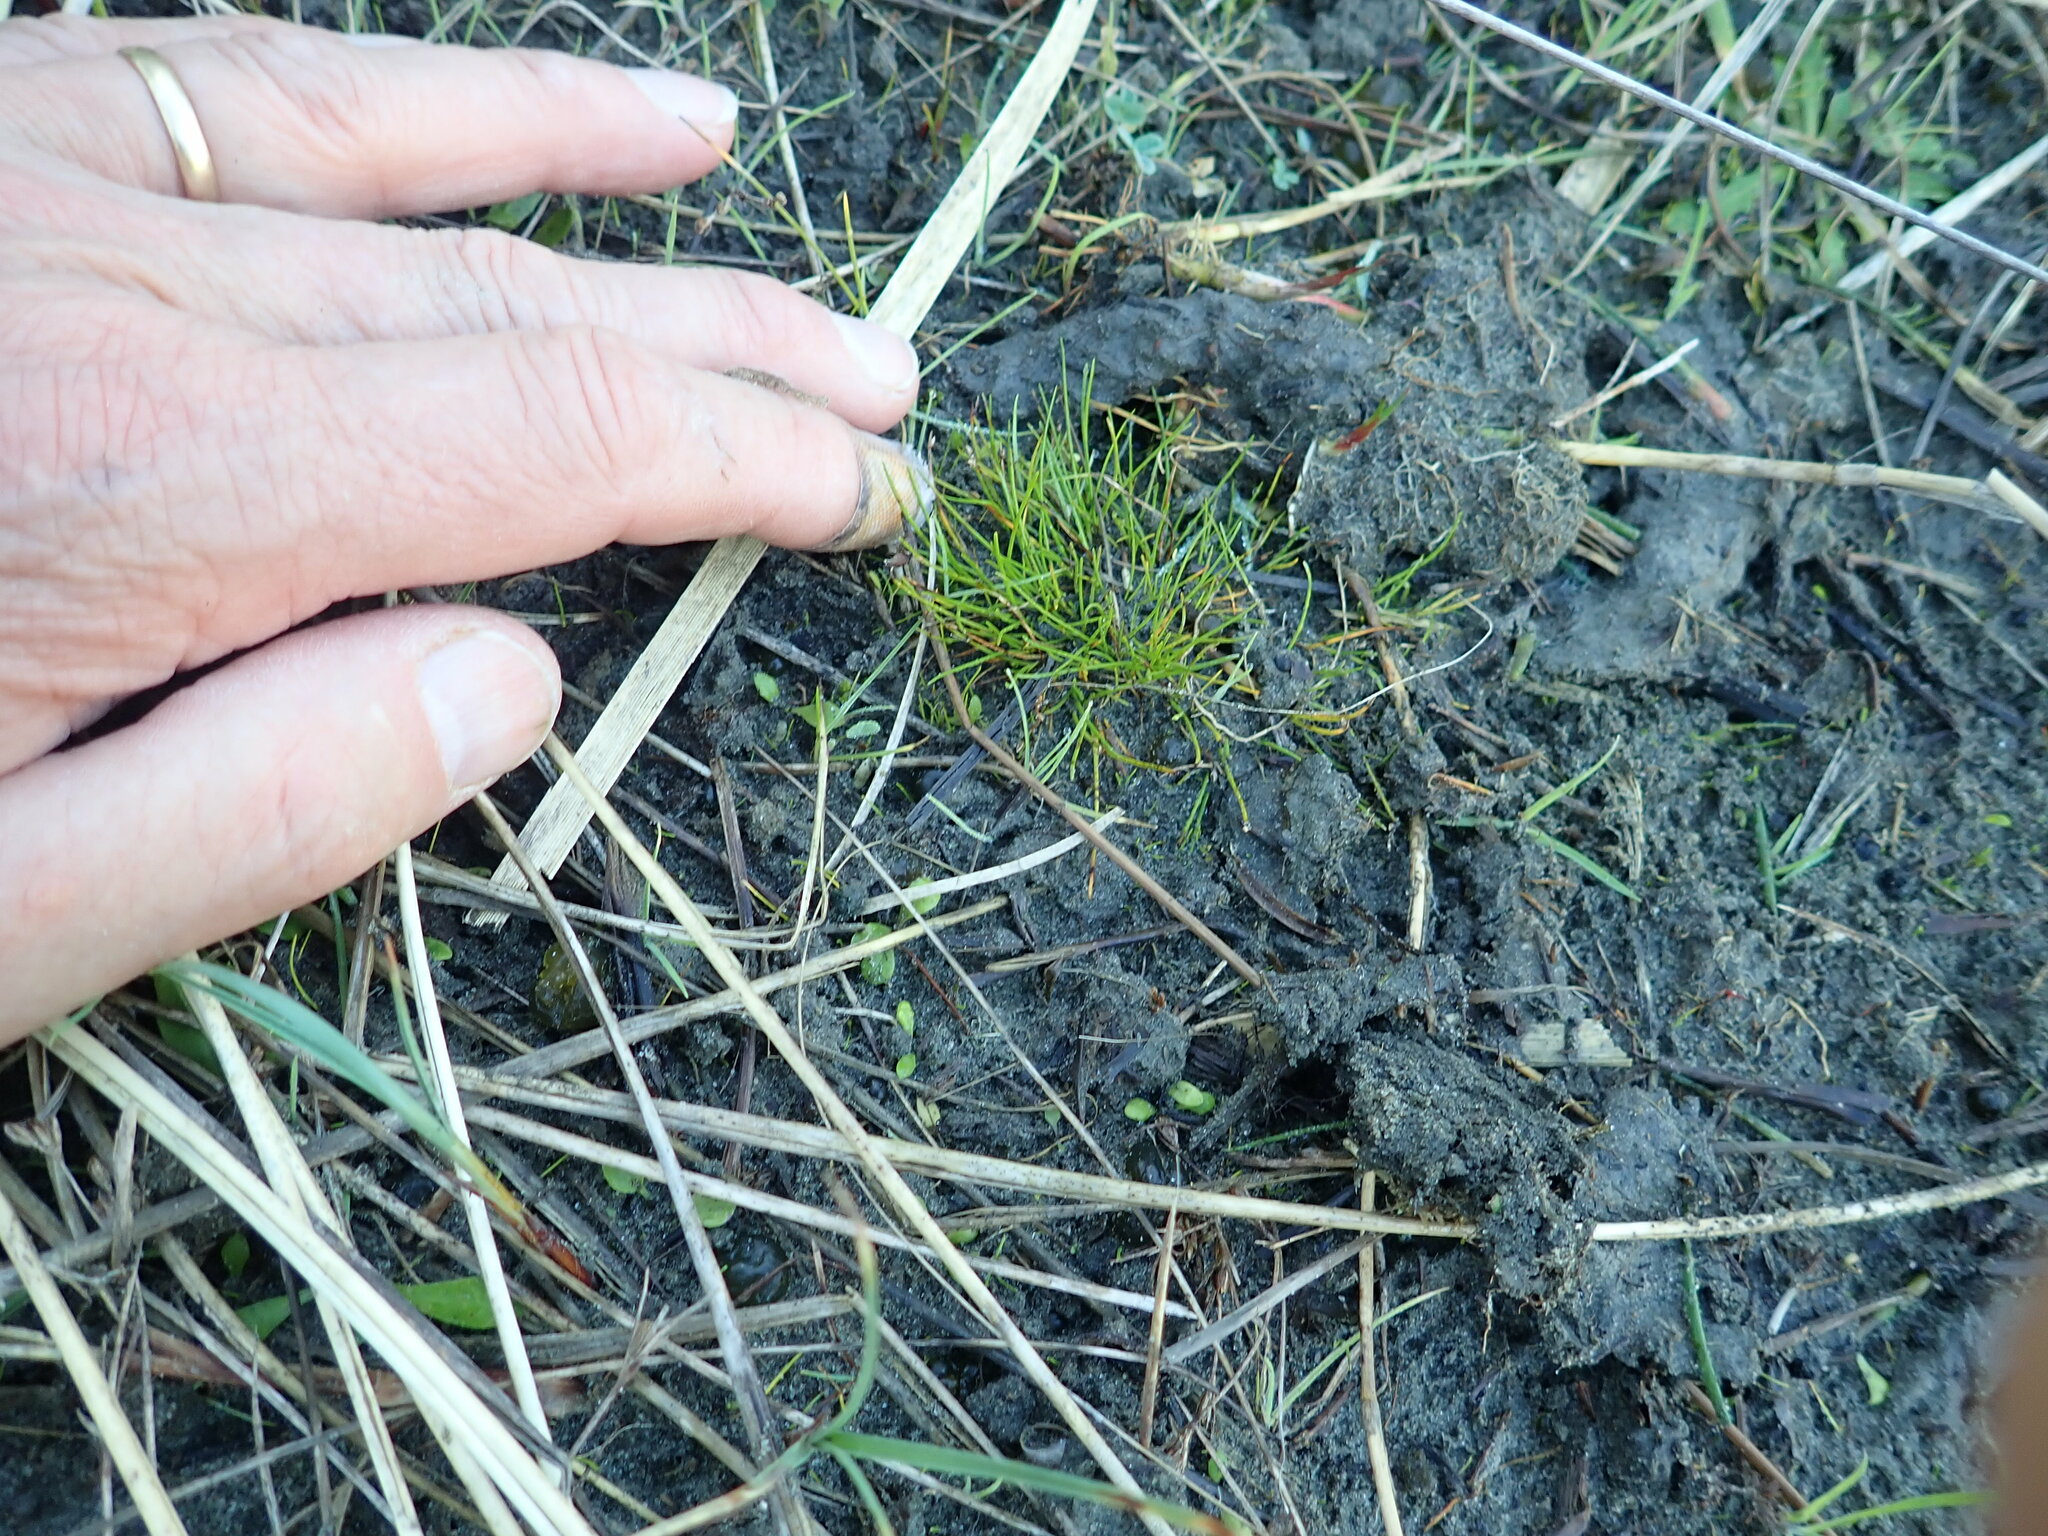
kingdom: Plantae
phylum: Tracheophyta
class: Liliopsida
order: Poales
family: Cyperaceae
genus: Isolepis
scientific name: Isolepis cernua
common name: Slender club-rush
